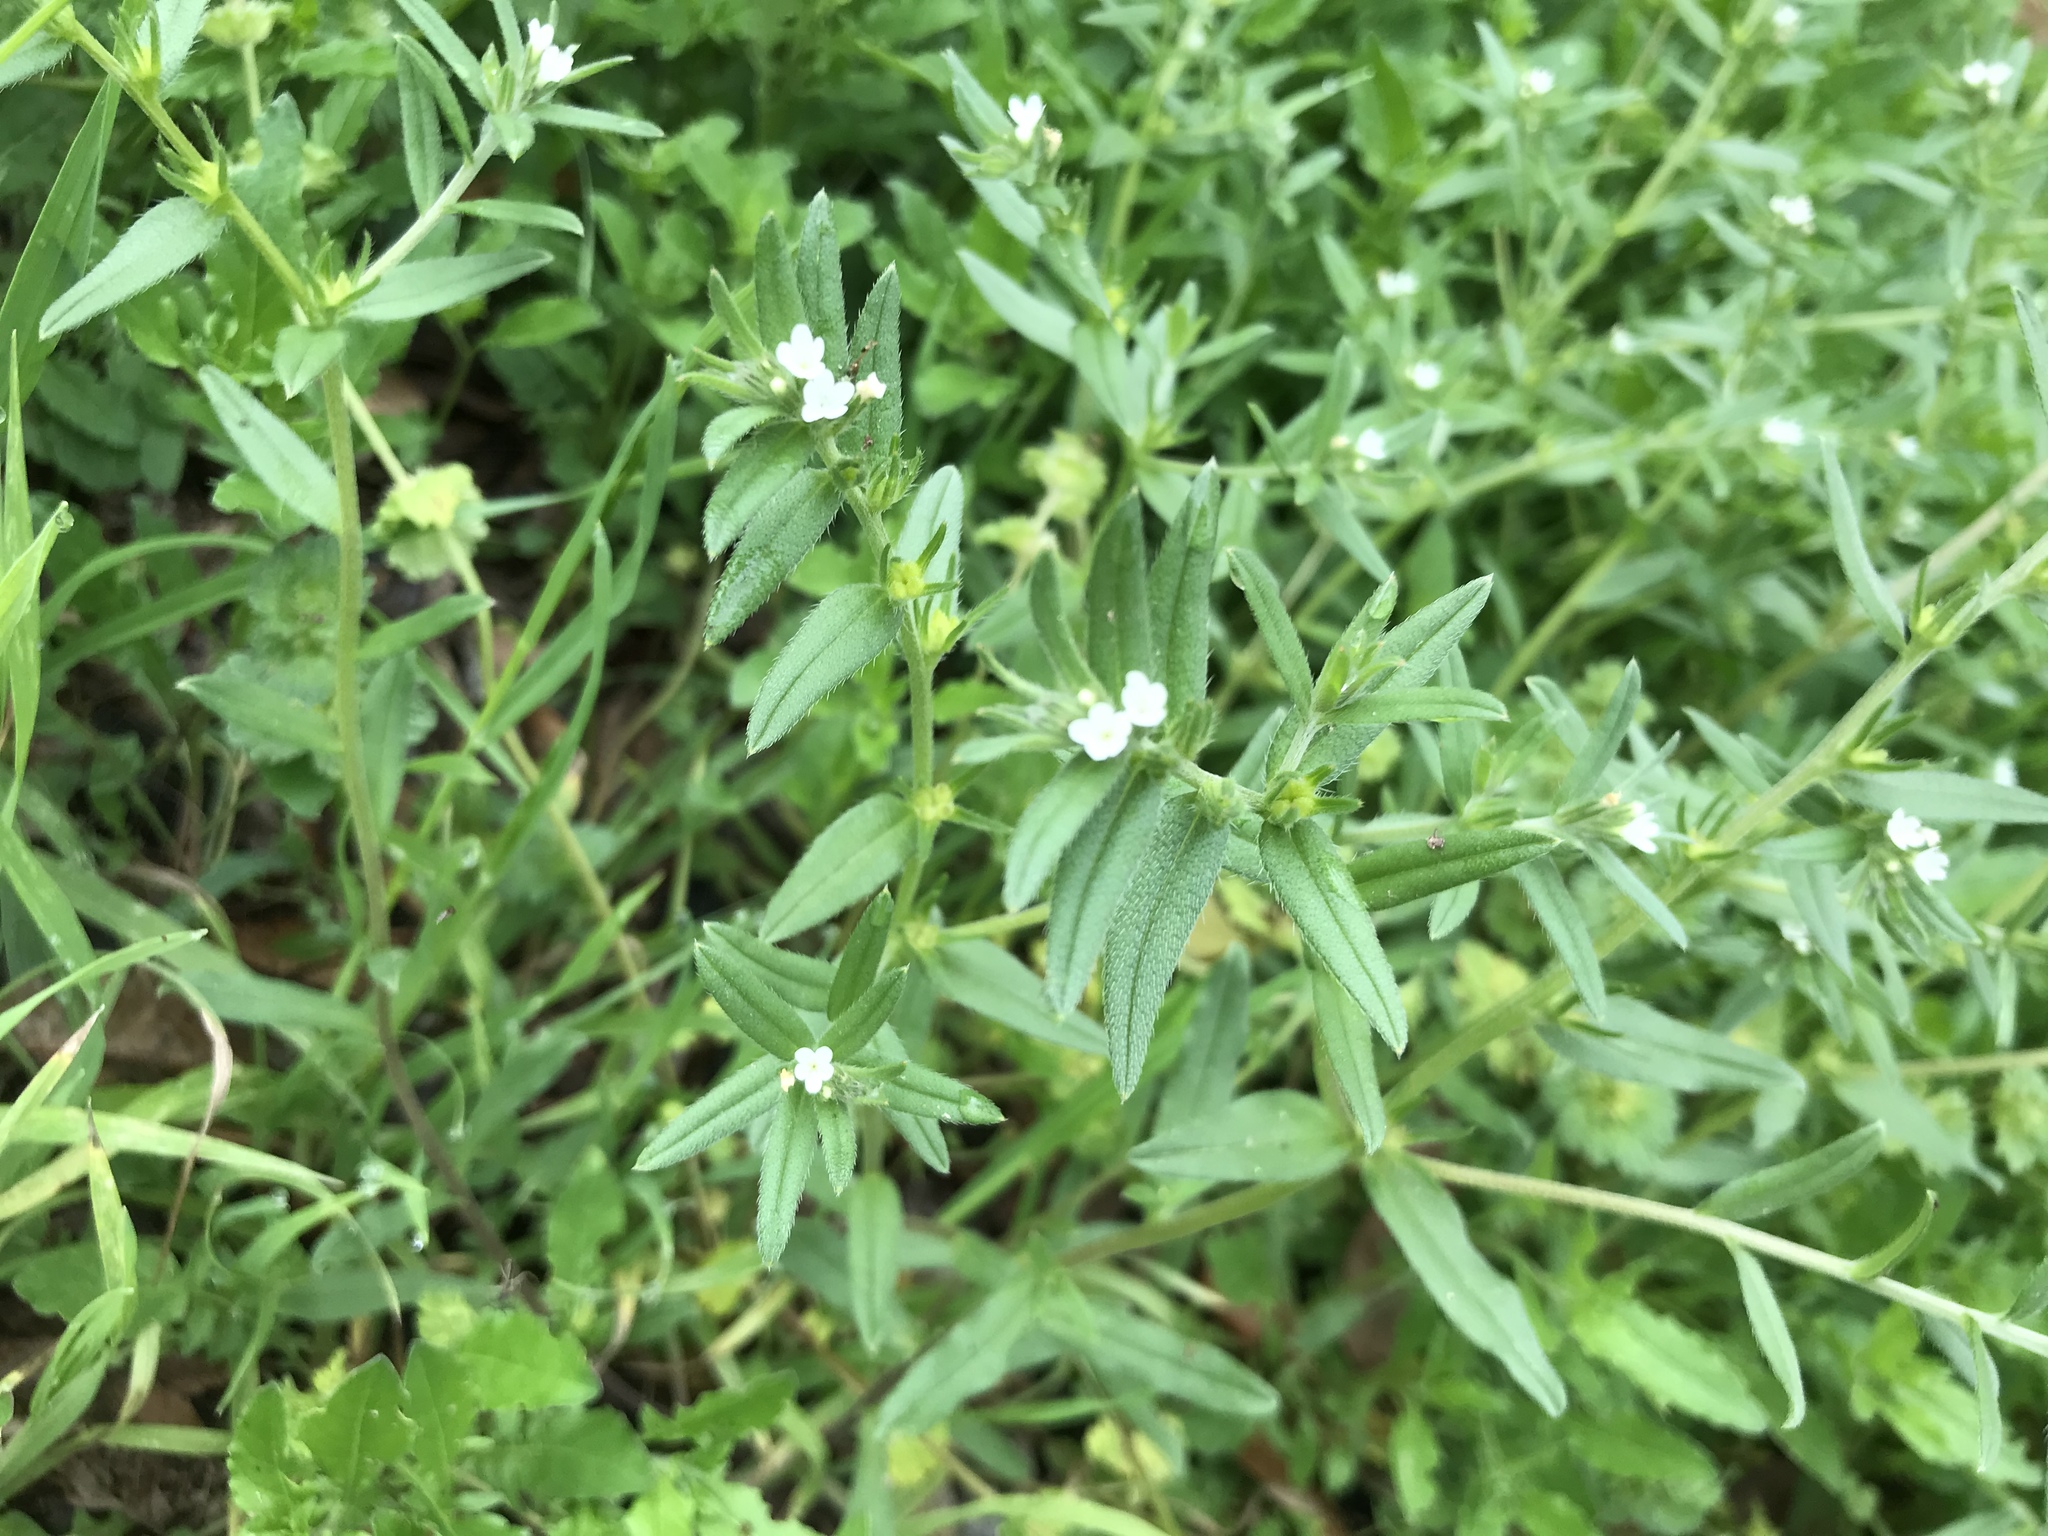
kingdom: Plantae
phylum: Tracheophyta
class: Magnoliopsida
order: Boraginales
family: Boraginaceae
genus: Buglossoides
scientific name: Buglossoides arvensis
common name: Corn gromwell
